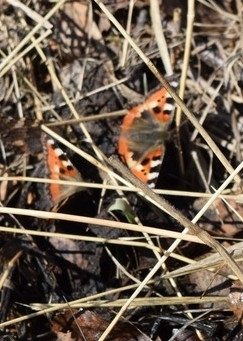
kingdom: Animalia
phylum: Arthropoda
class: Insecta
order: Lepidoptera
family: Nymphalidae
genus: Aglais
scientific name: Aglais urticae
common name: Small tortoiseshell
